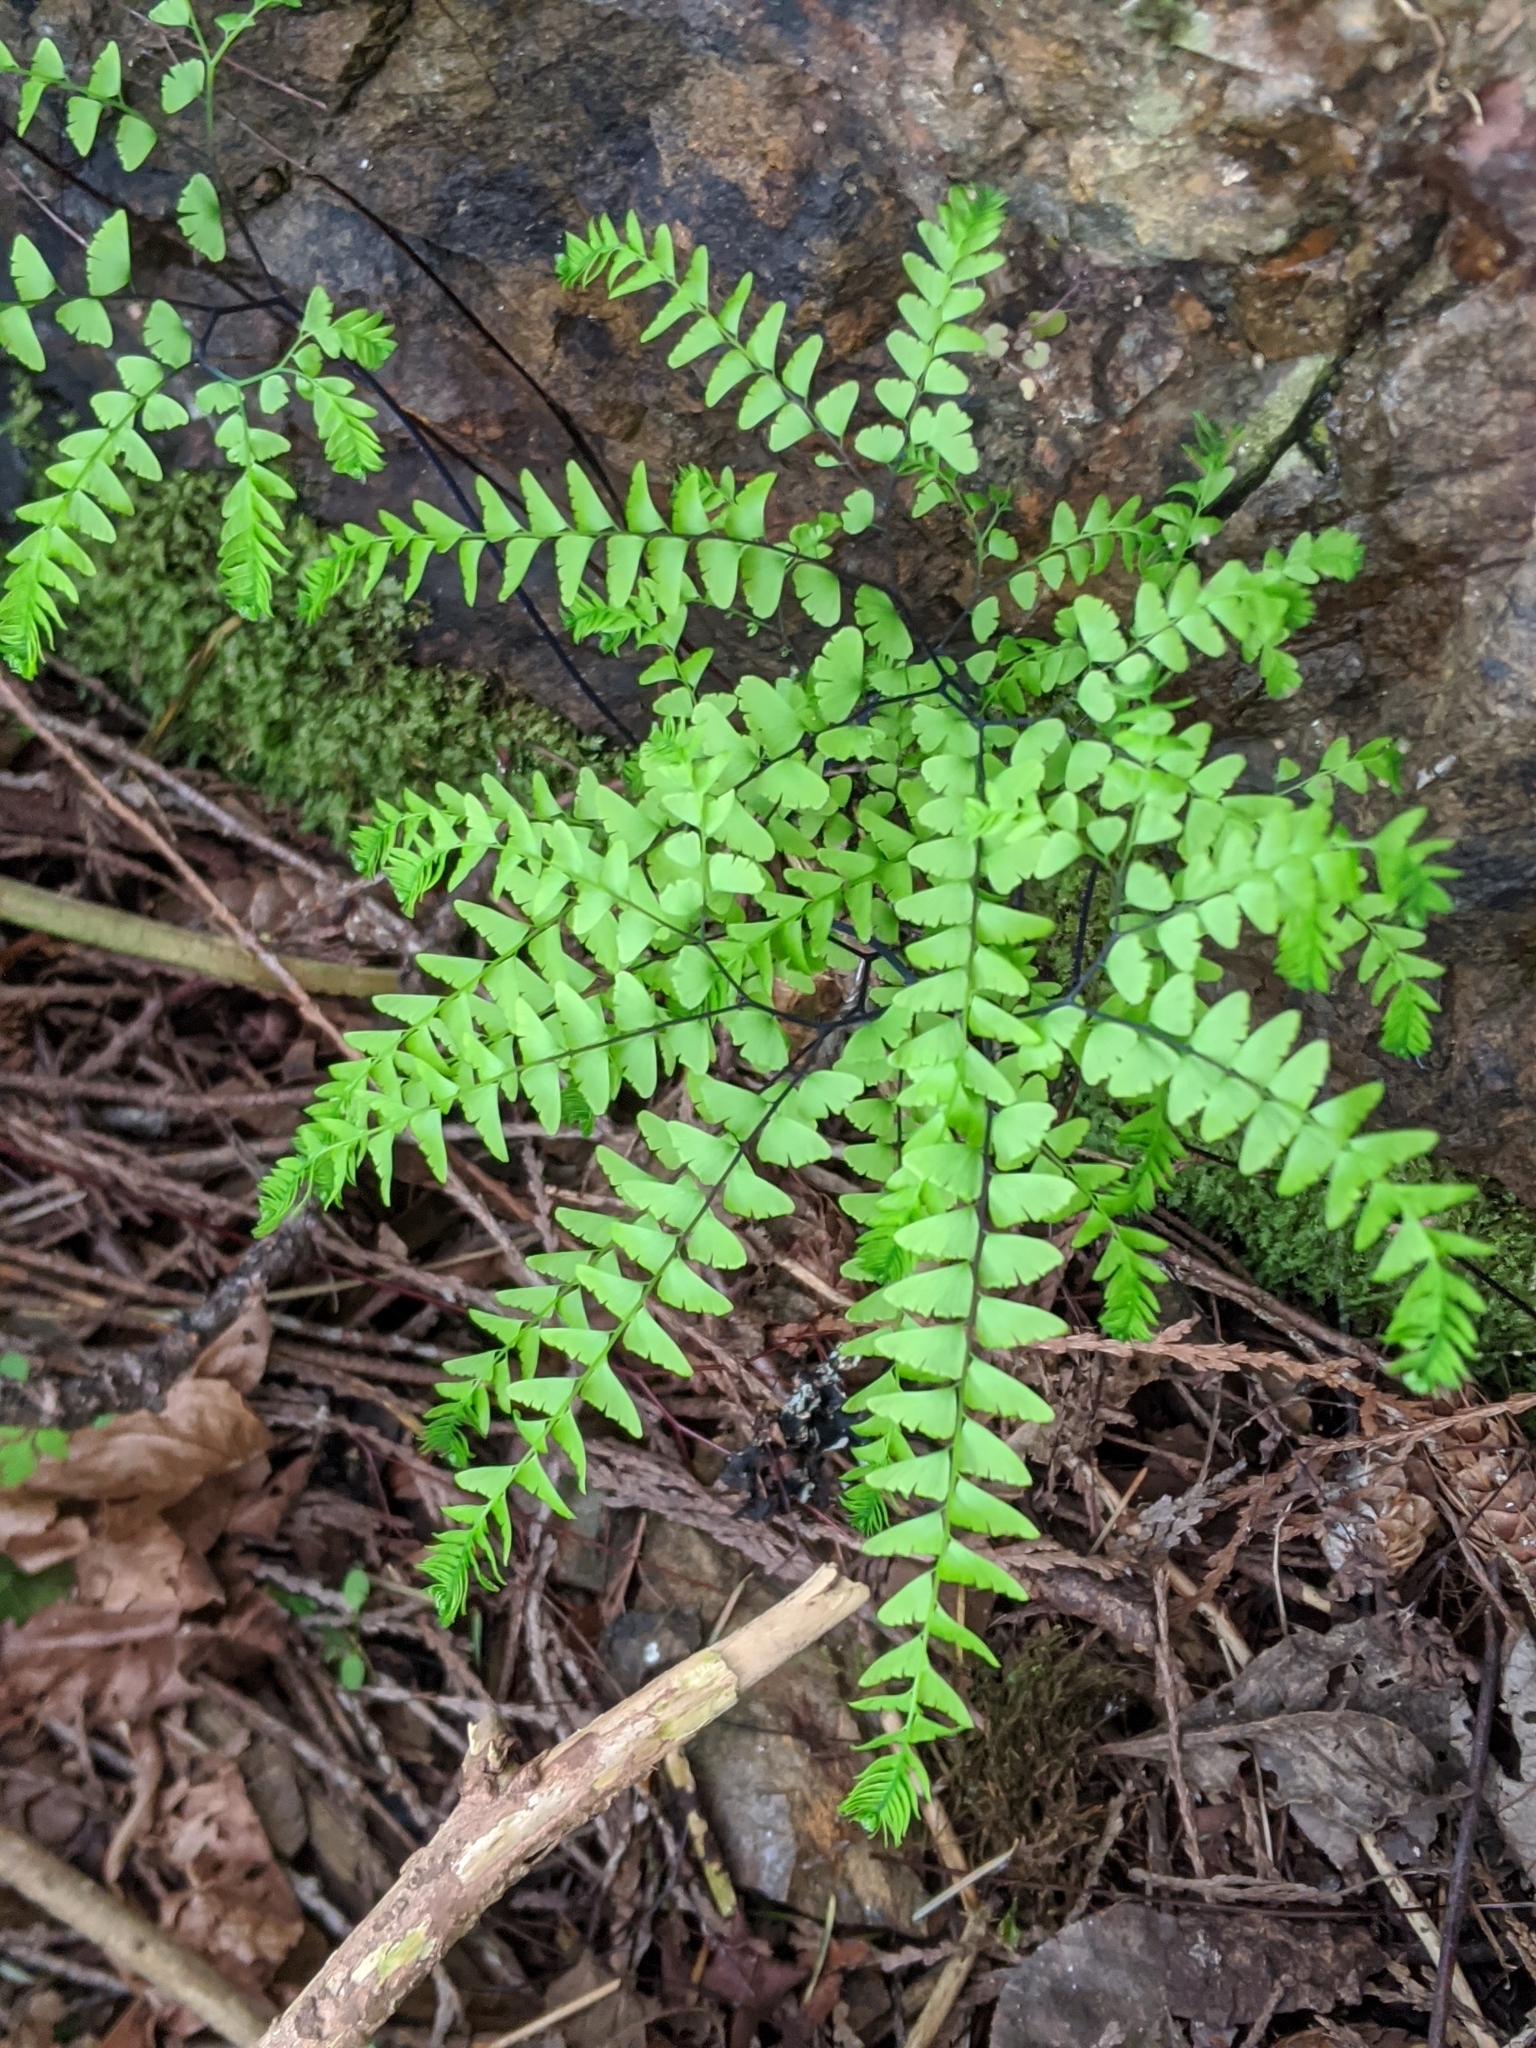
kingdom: Plantae
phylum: Tracheophyta
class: Polypodiopsida
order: Polypodiales
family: Pteridaceae
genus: Adiantum
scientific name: Adiantum aleuticum
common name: Aleutian maidenhair fern
